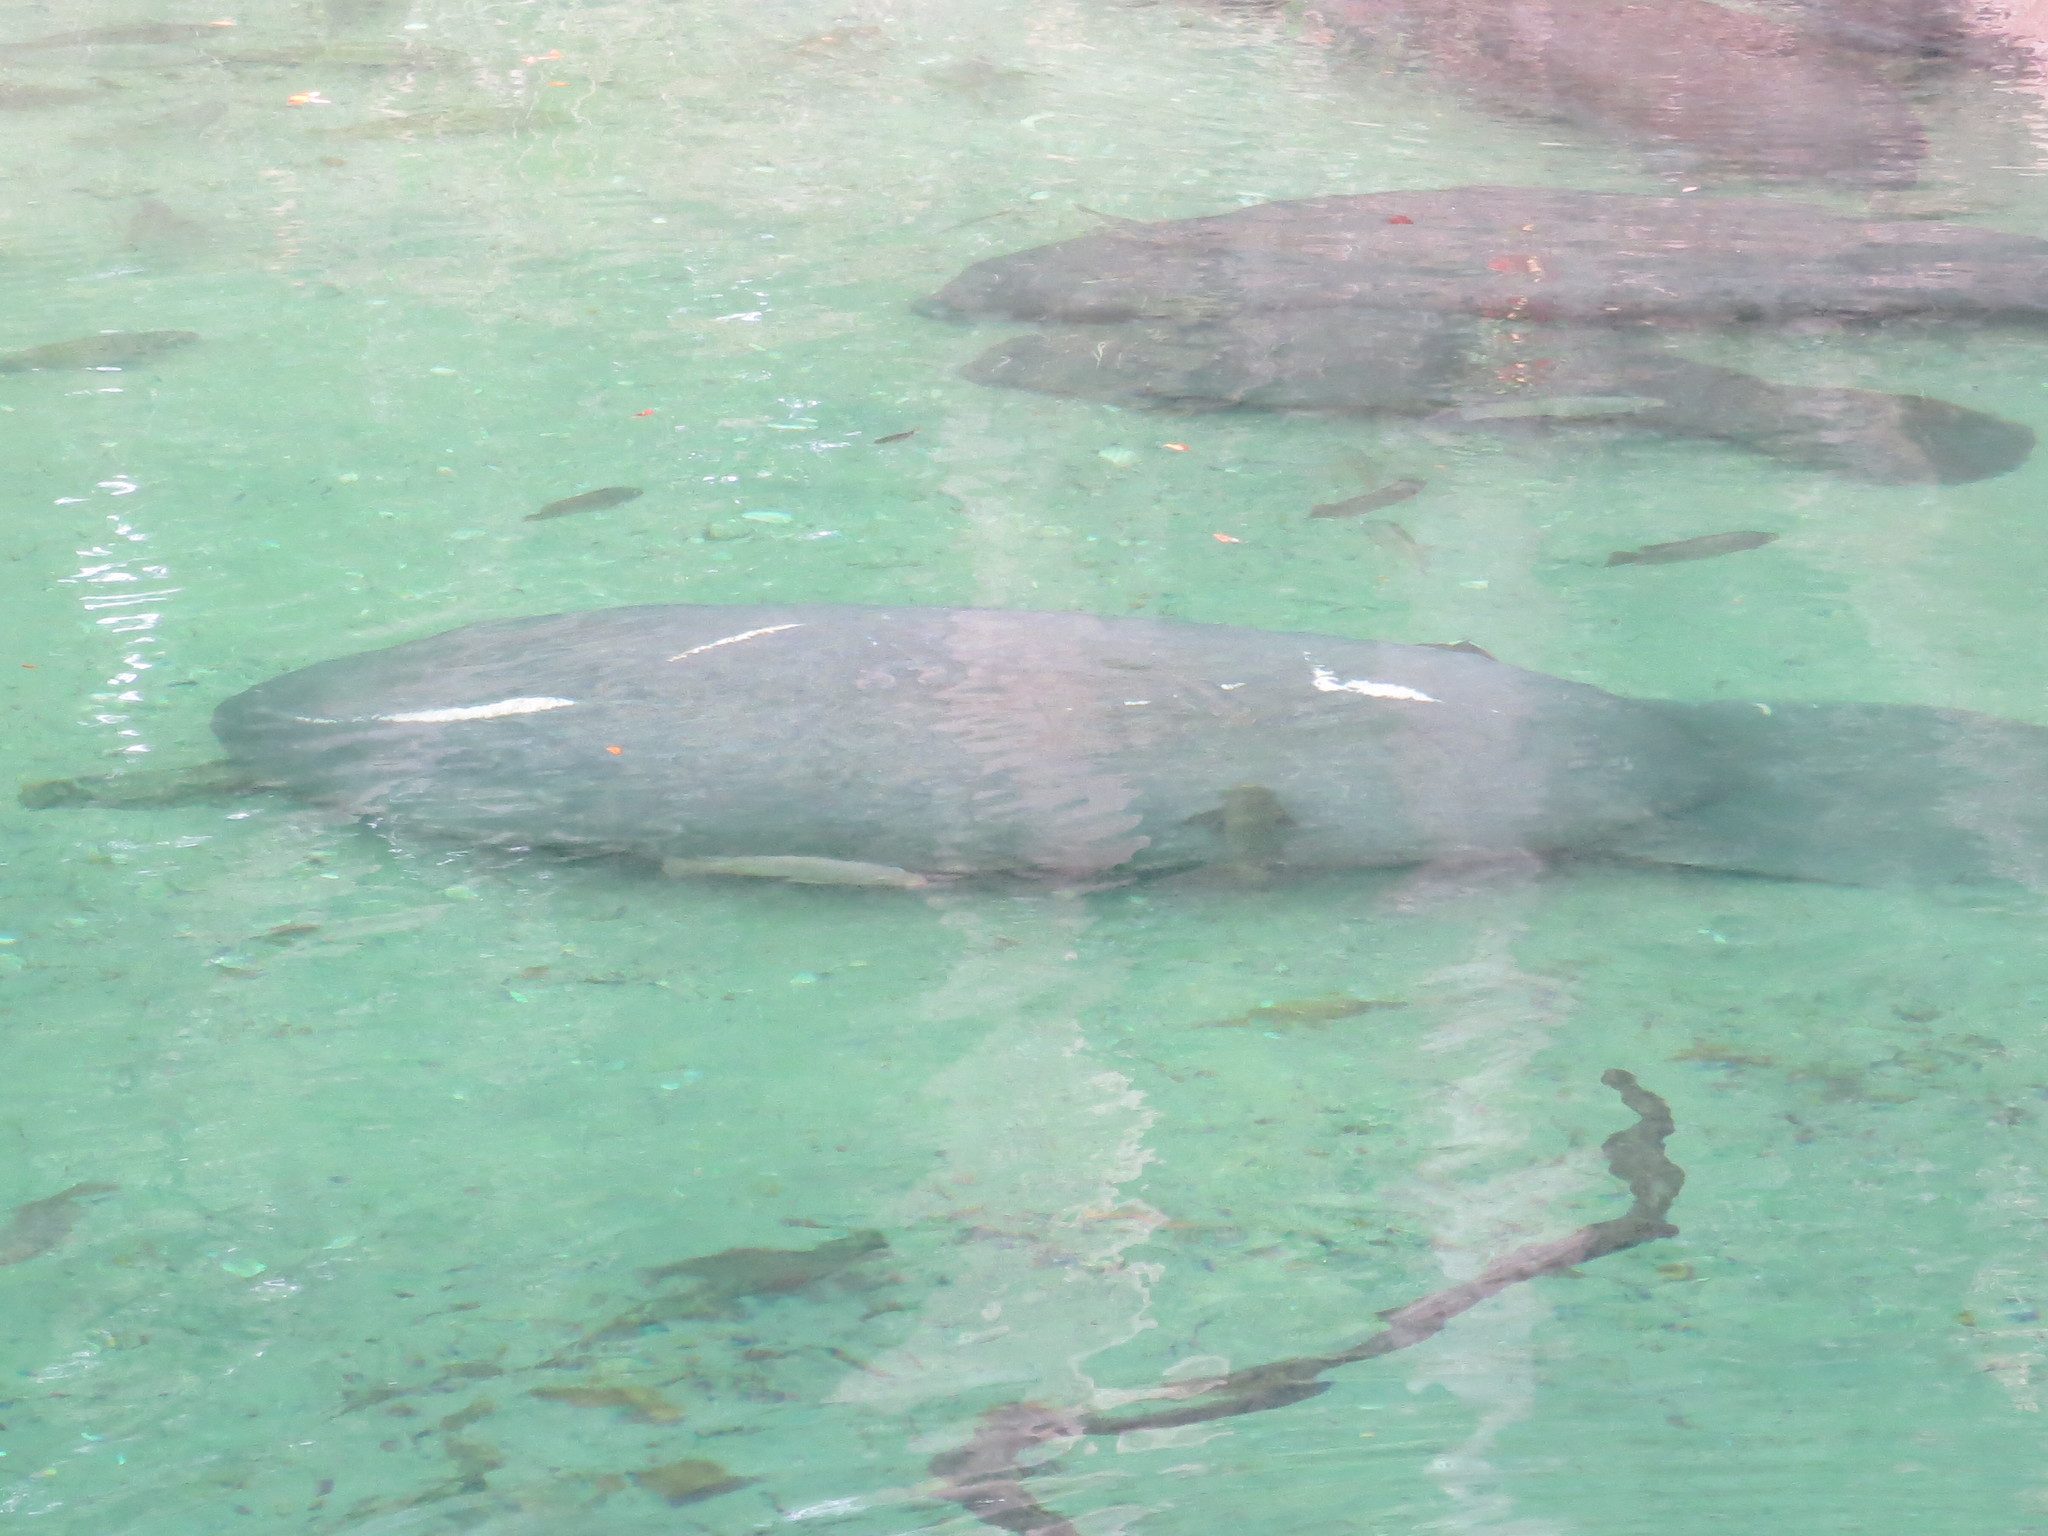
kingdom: Animalia
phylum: Chordata
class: Mammalia
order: Sirenia
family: Trichechidae
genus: Trichechus
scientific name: Trichechus manatus
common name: West indian manatee
